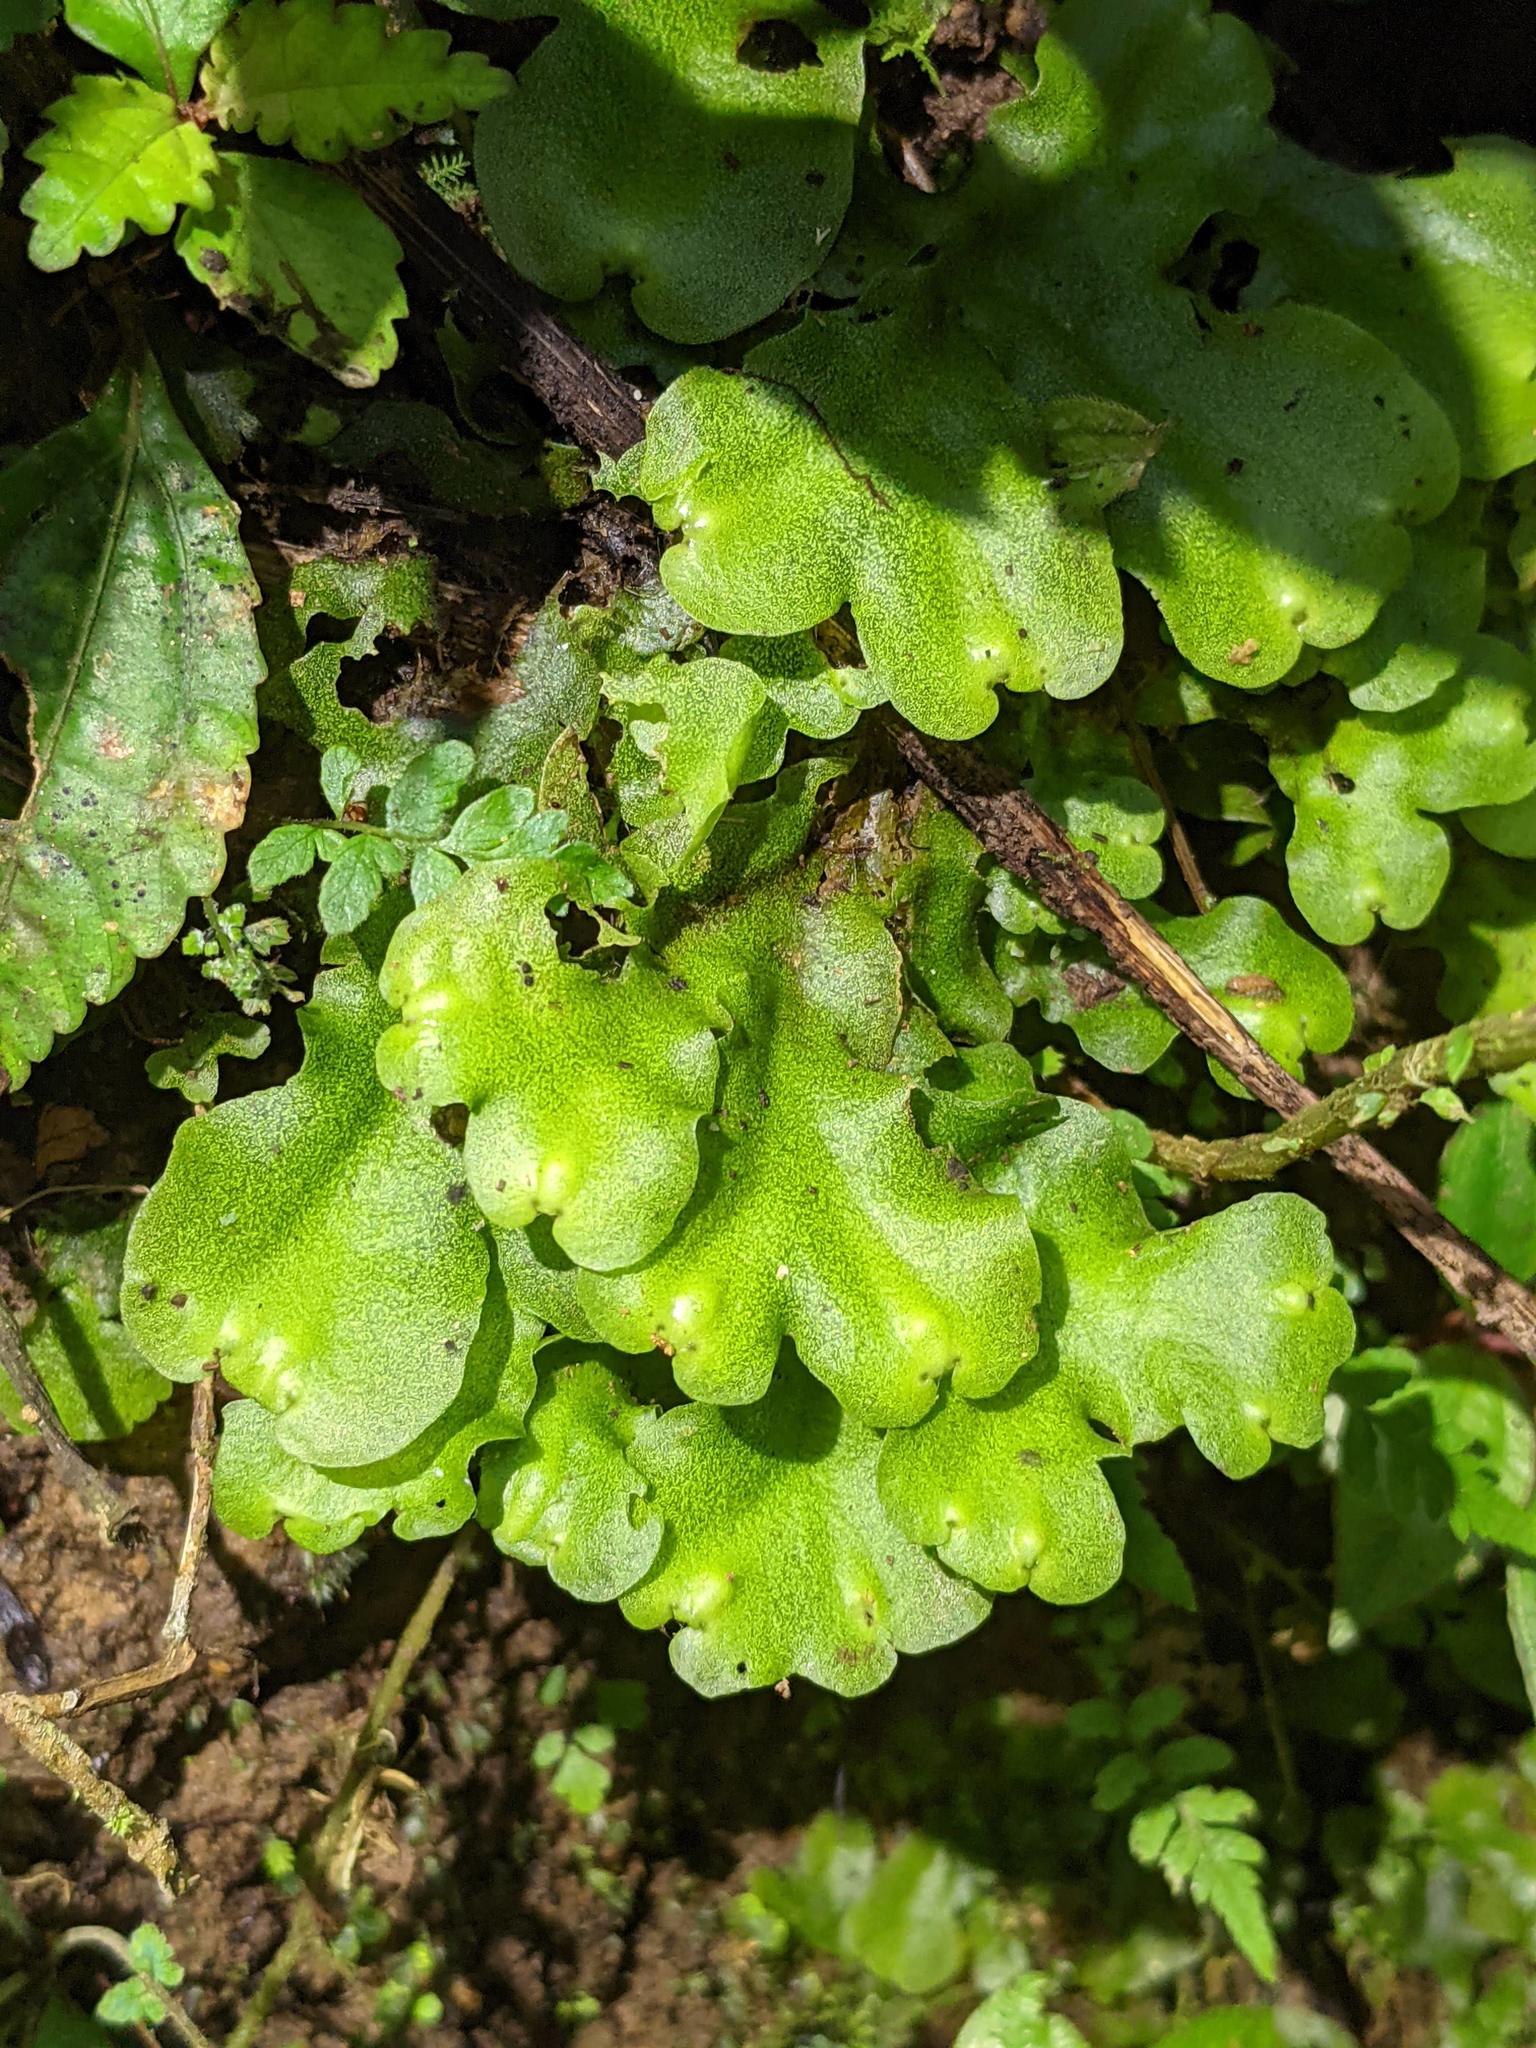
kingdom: Plantae
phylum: Marchantiophyta
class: Marchantiopsida
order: Marchantiales
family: Monocleaceae
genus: Monoclea
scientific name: Monoclea gottschei
